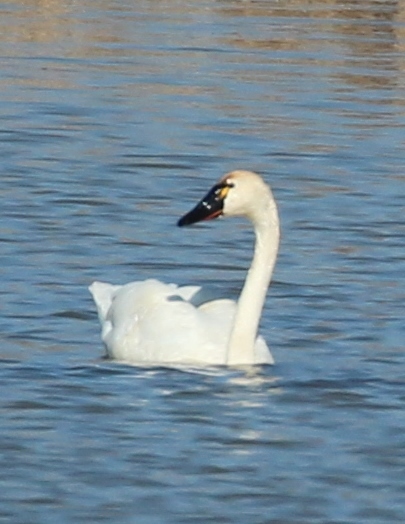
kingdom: Animalia
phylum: Chordata
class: Aves
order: Anseriformes
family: Anatidae
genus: Cygnus
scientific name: Cygnus columbianus
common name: Tundra swan
